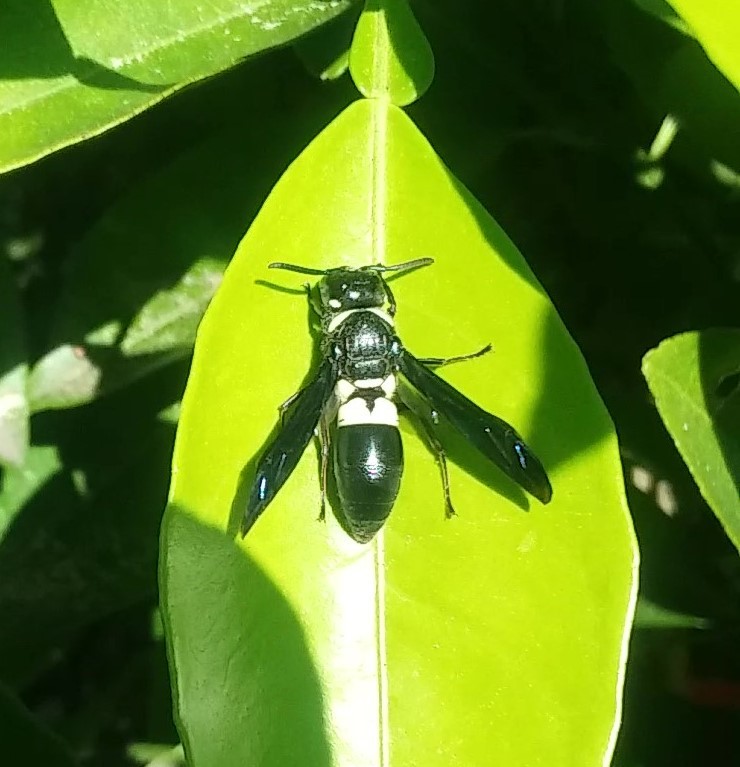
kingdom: Animalia
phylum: Arthropoda
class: Insecta
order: Hymenoptera
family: Eumenidae
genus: Euodynerus
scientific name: Euodynerus bidens
